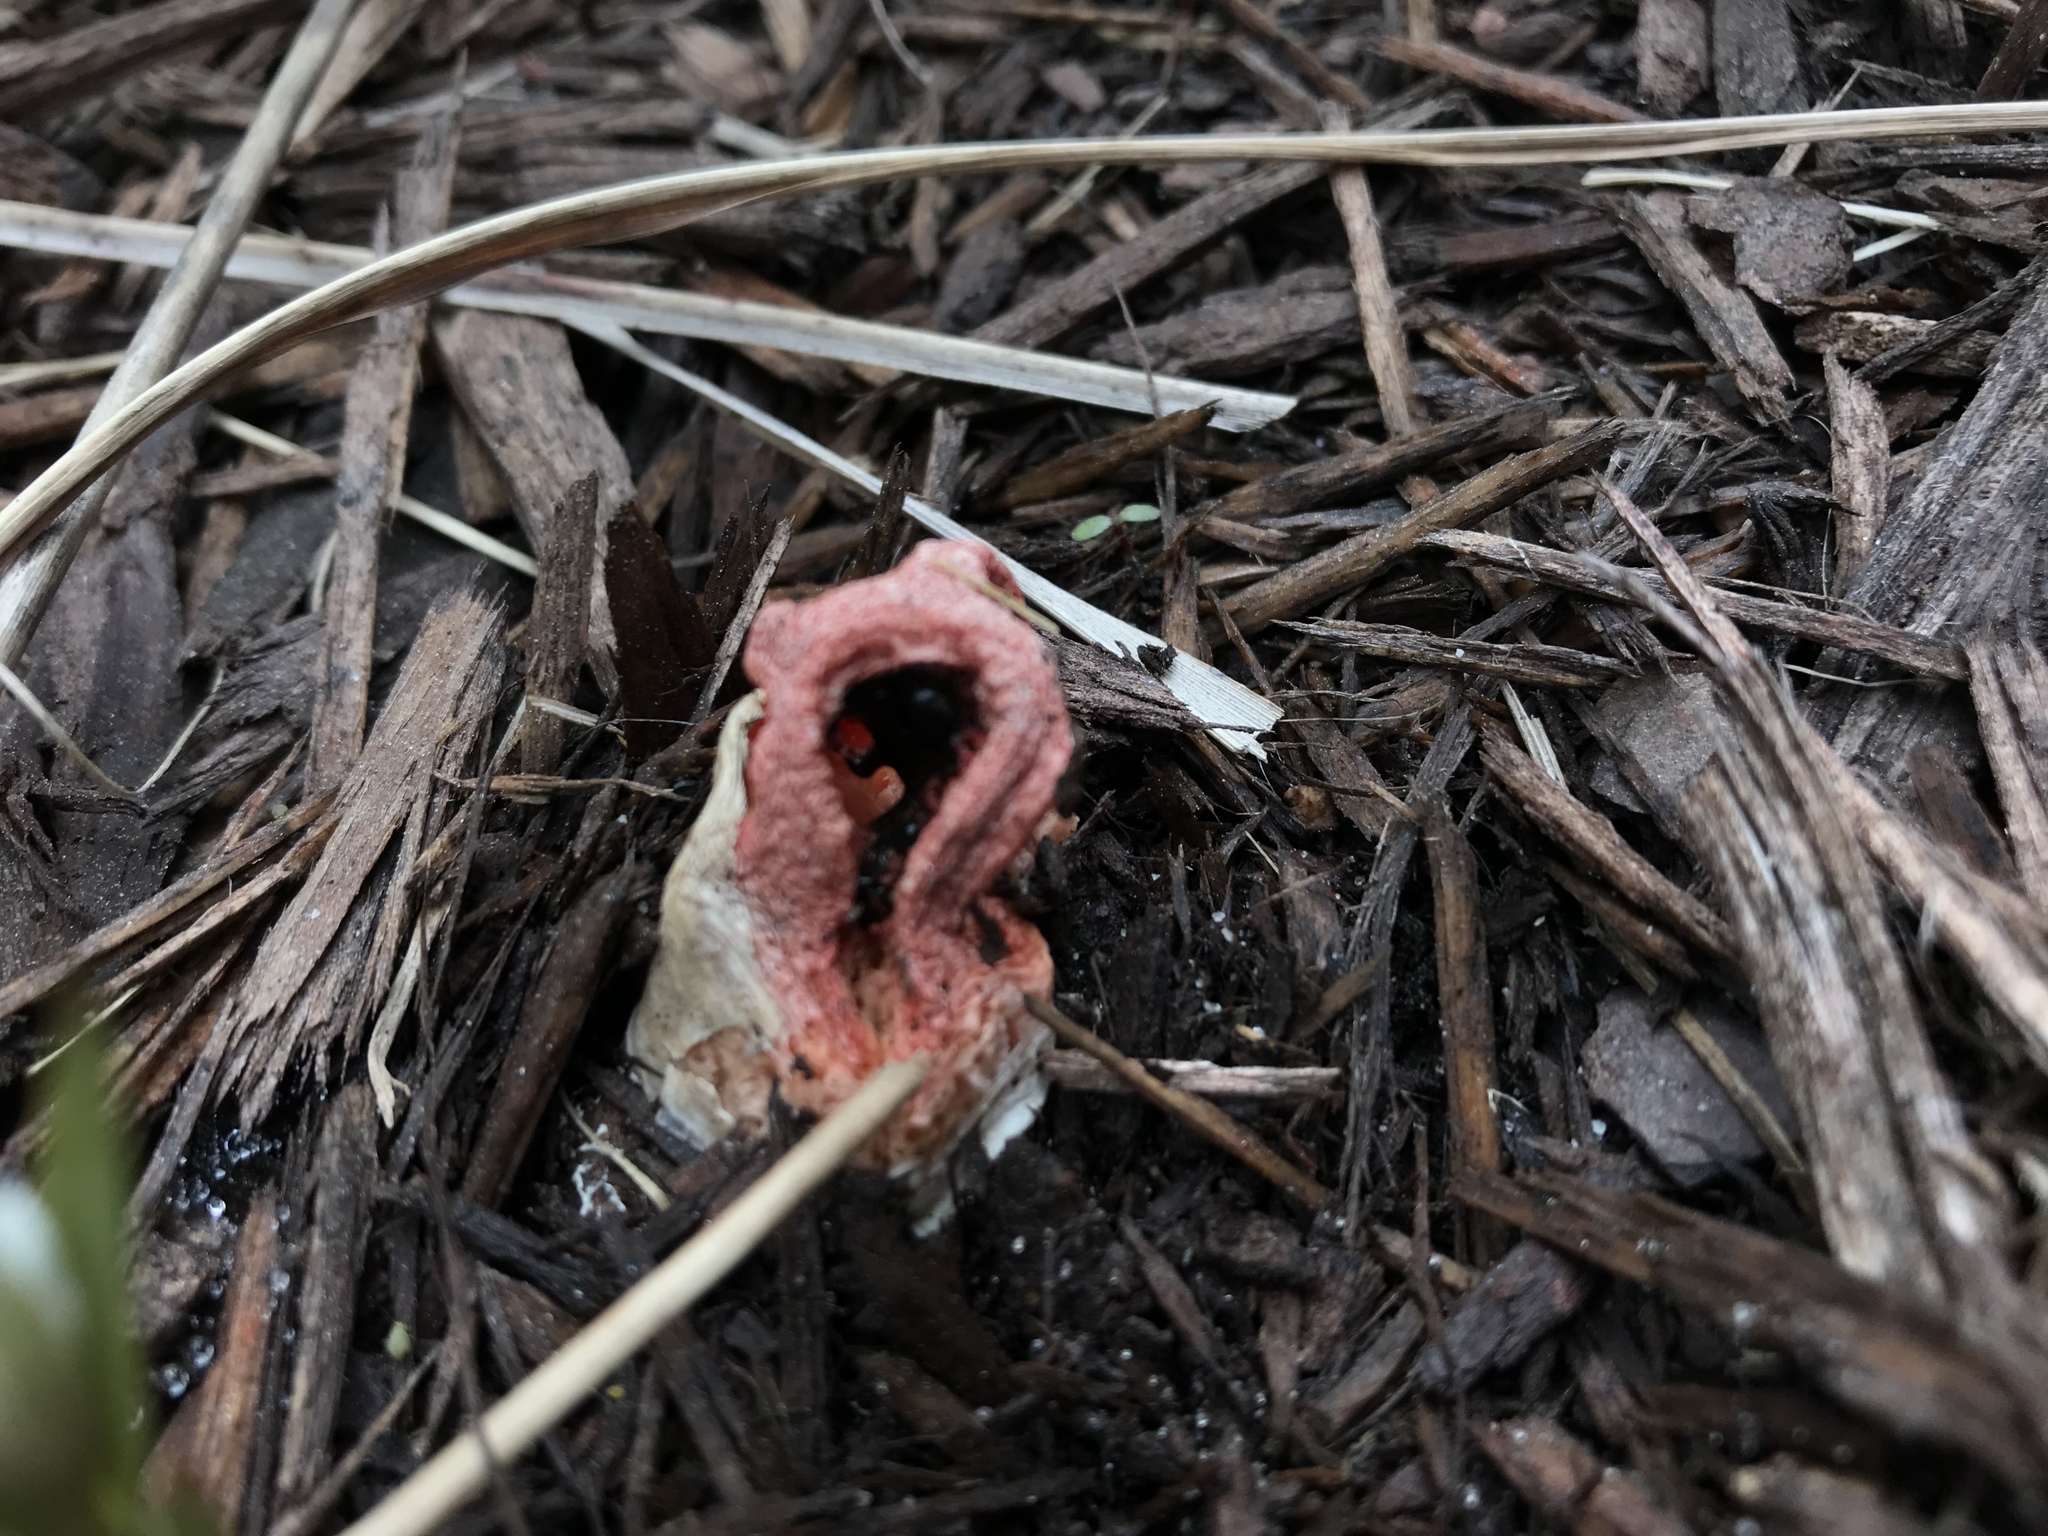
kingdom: Fungi
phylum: Basidiomycota
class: Agaricomycetes
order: Phallales
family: Phallaceae
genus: Clathrus
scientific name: Clathrus columnatus
